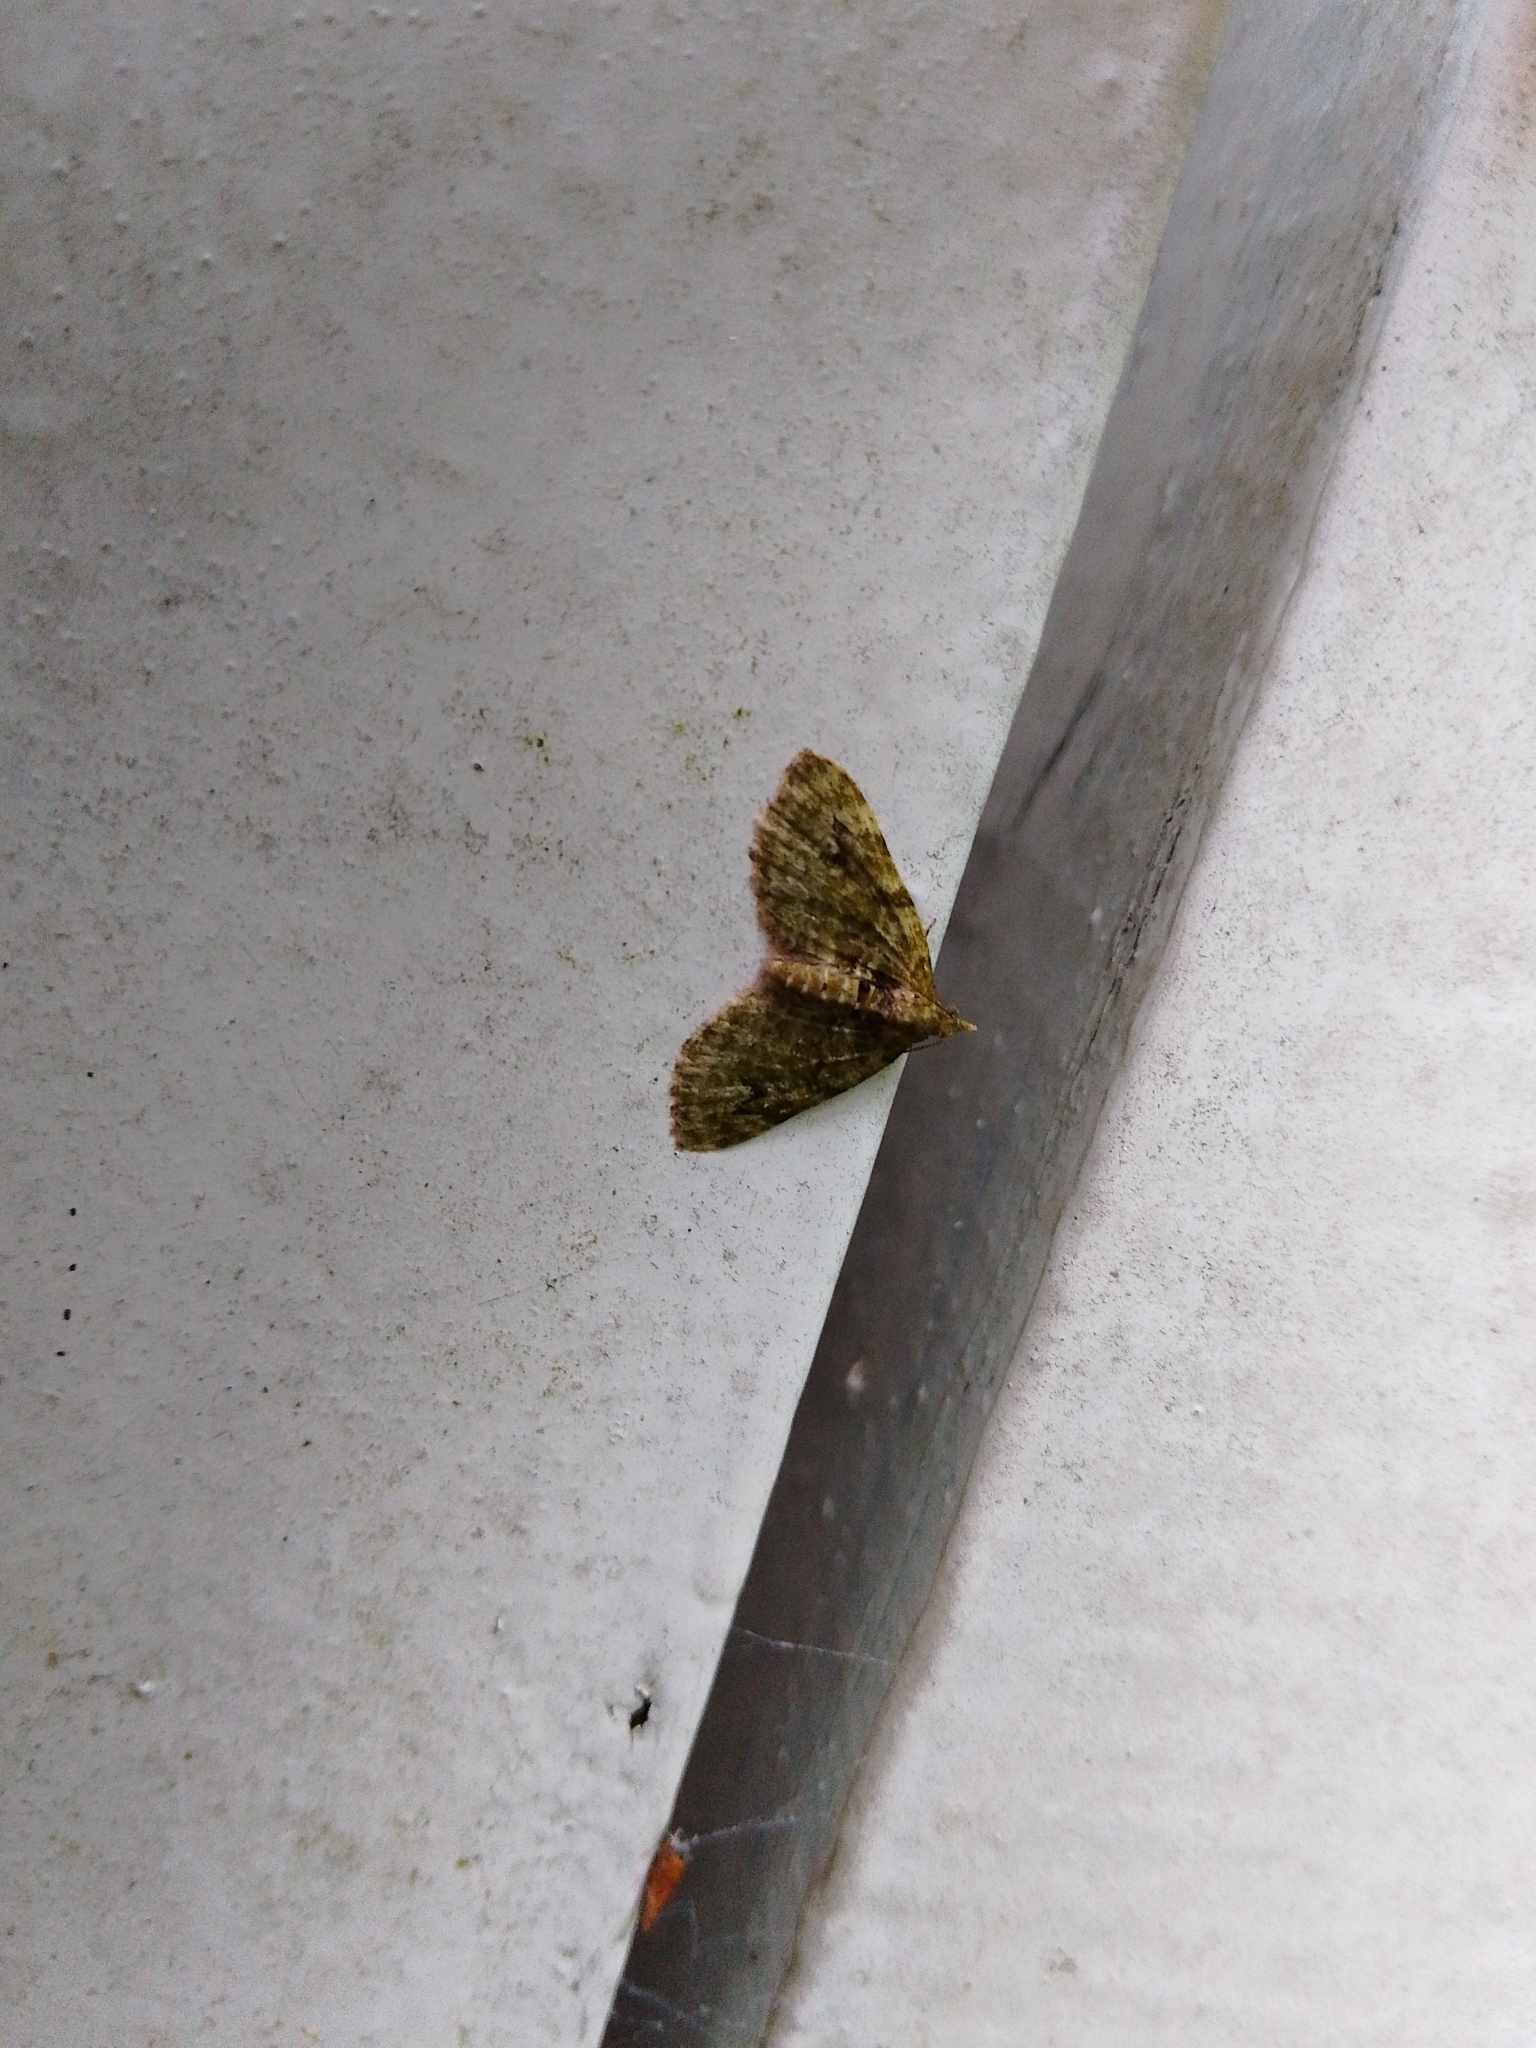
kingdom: Animalia
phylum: Arthropoda
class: Insecta
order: Lepidoptera
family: Geometridae
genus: Chloroclystis
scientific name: Chloroclystis v-ata
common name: V-pug
